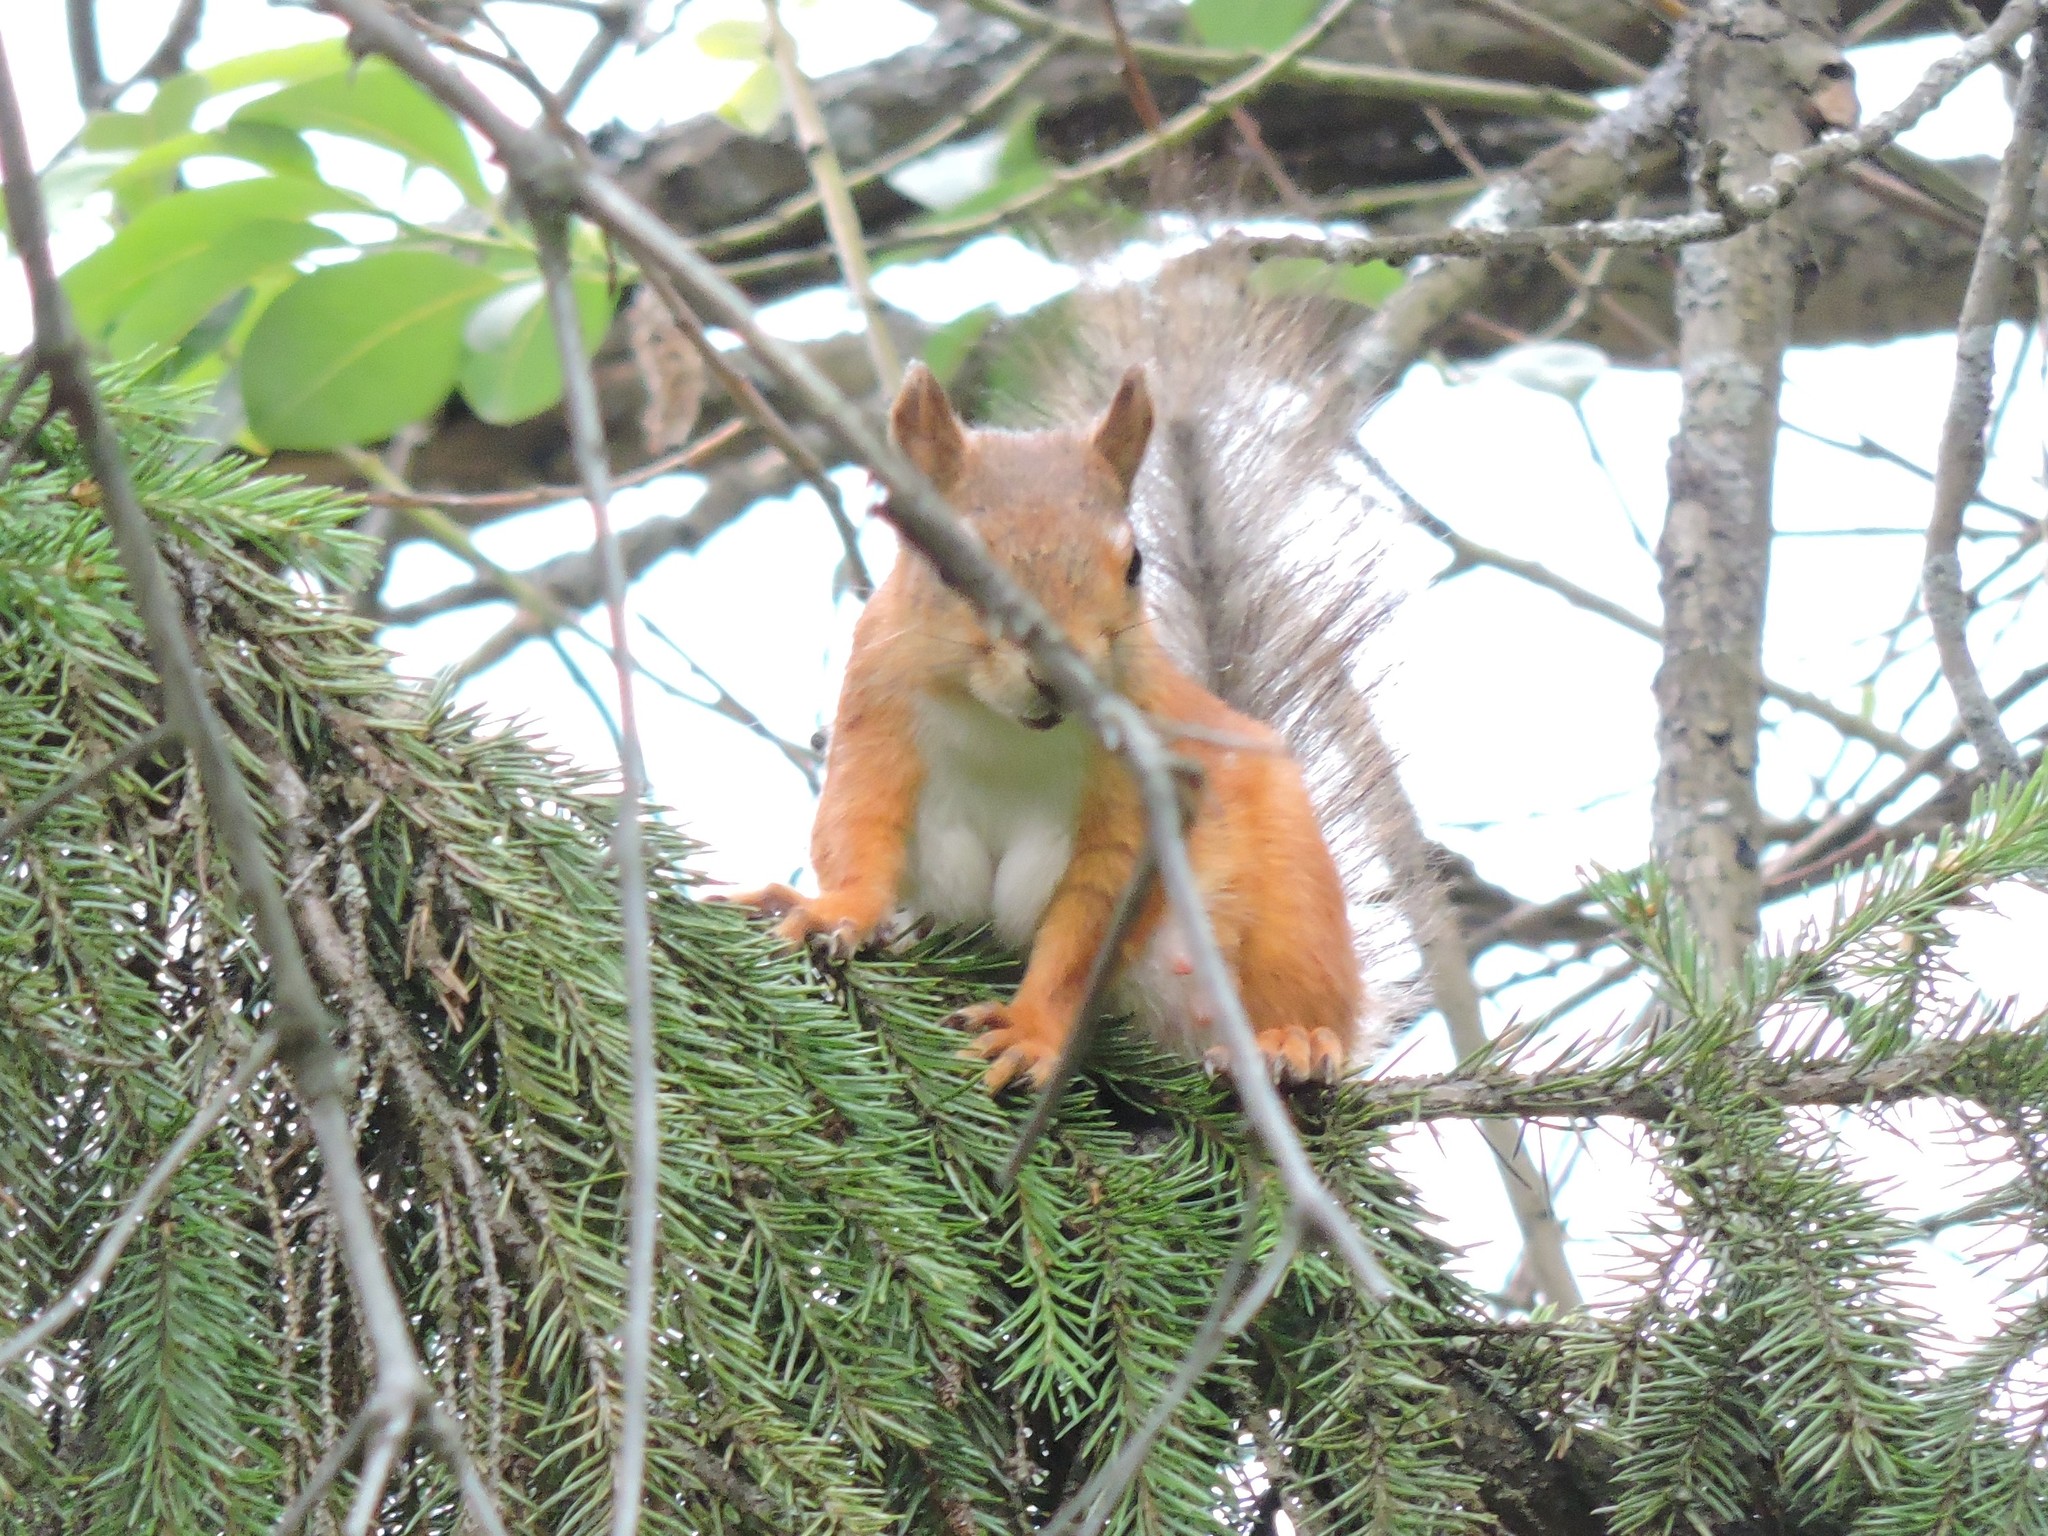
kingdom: Animalia
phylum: Chordata
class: Mammalia
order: Rodentia
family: Sciuridae
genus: Sciurus
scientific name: Sciurus vulgaris
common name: Eurasian red squirrel
